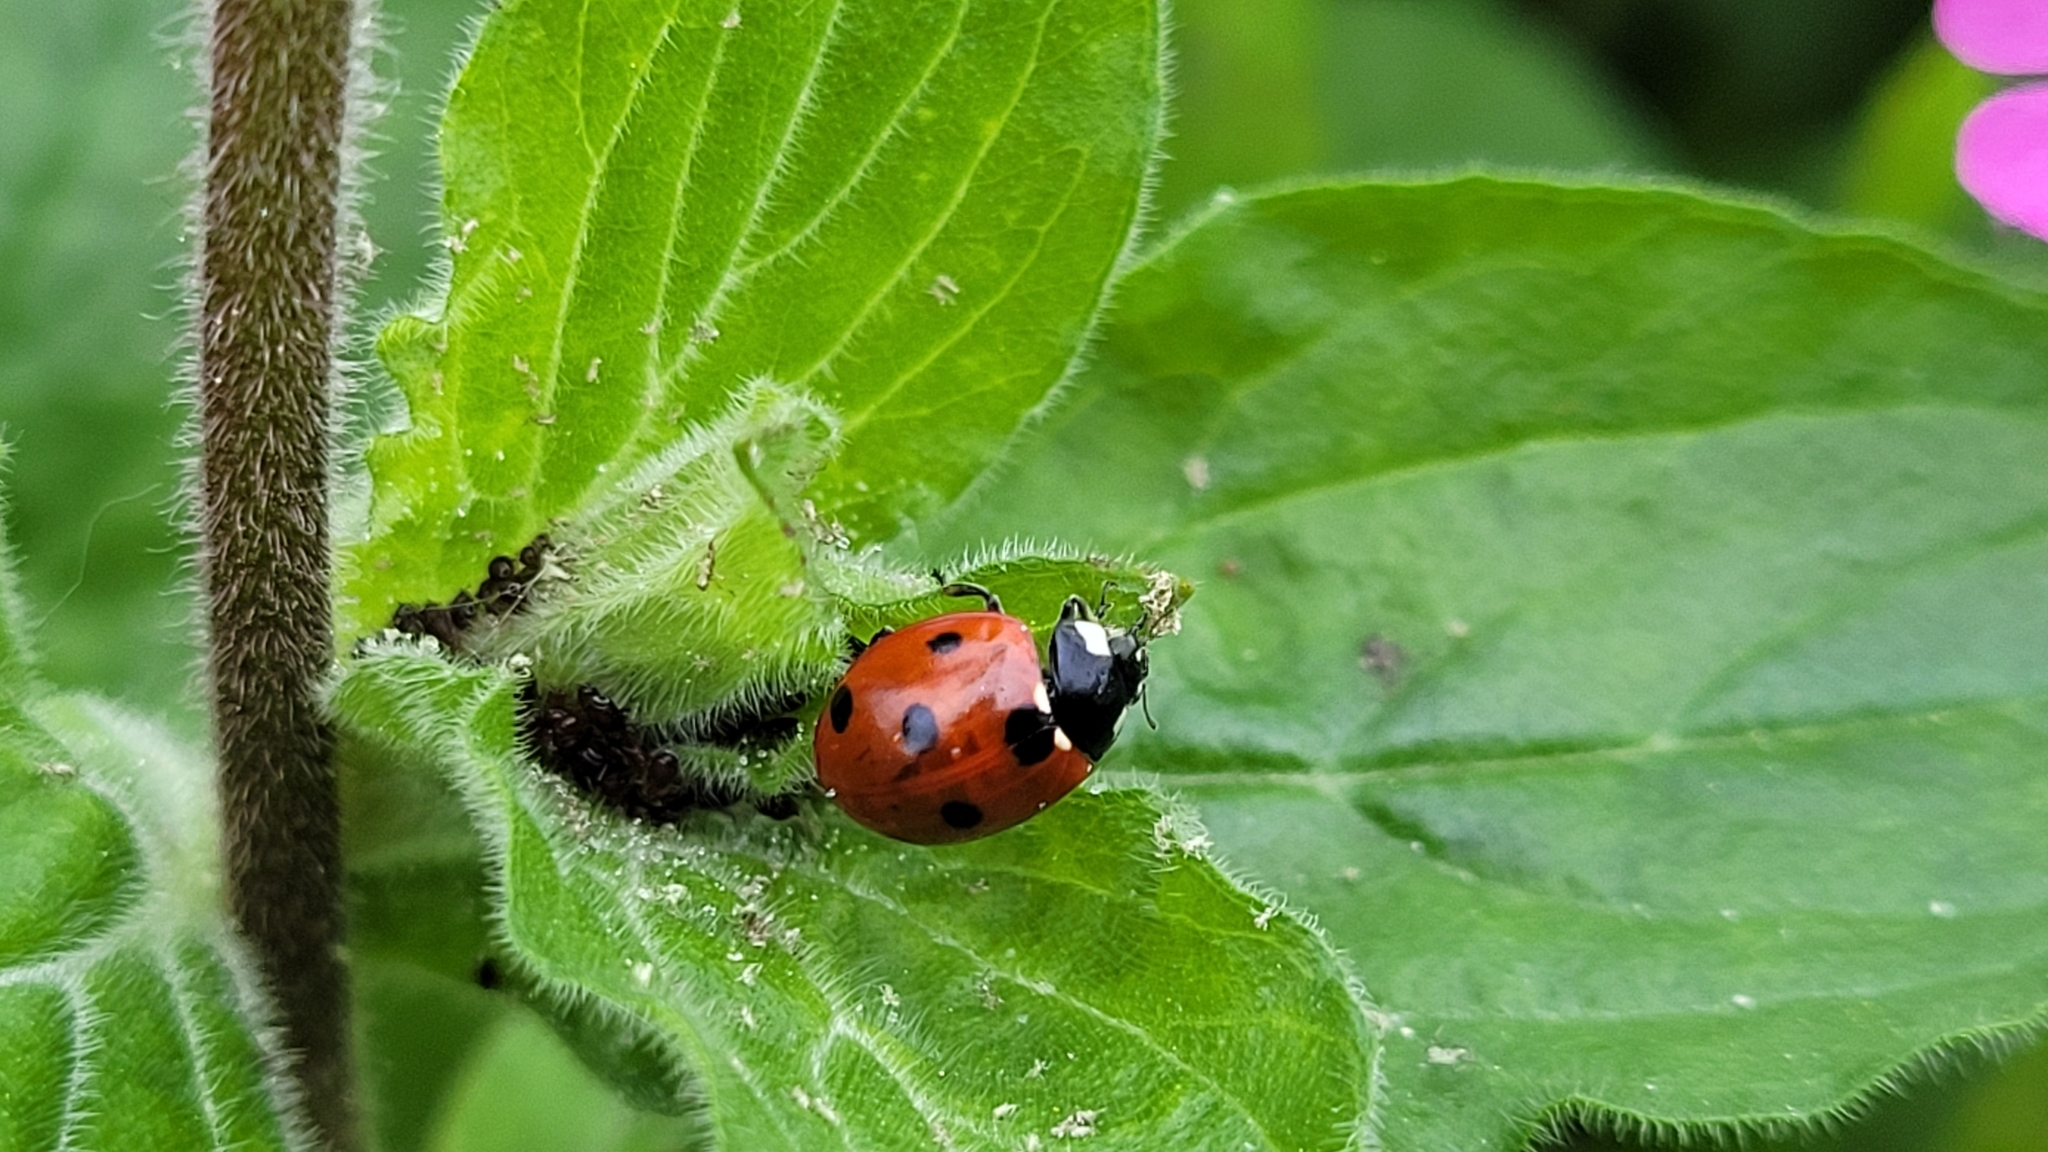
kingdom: Animalia
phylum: Arthropoda
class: Insecta
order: Coleoptera
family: Coccinellidae
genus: Coccinella
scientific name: Coccinella septempunctata
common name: Sevenspotted lady beetle
